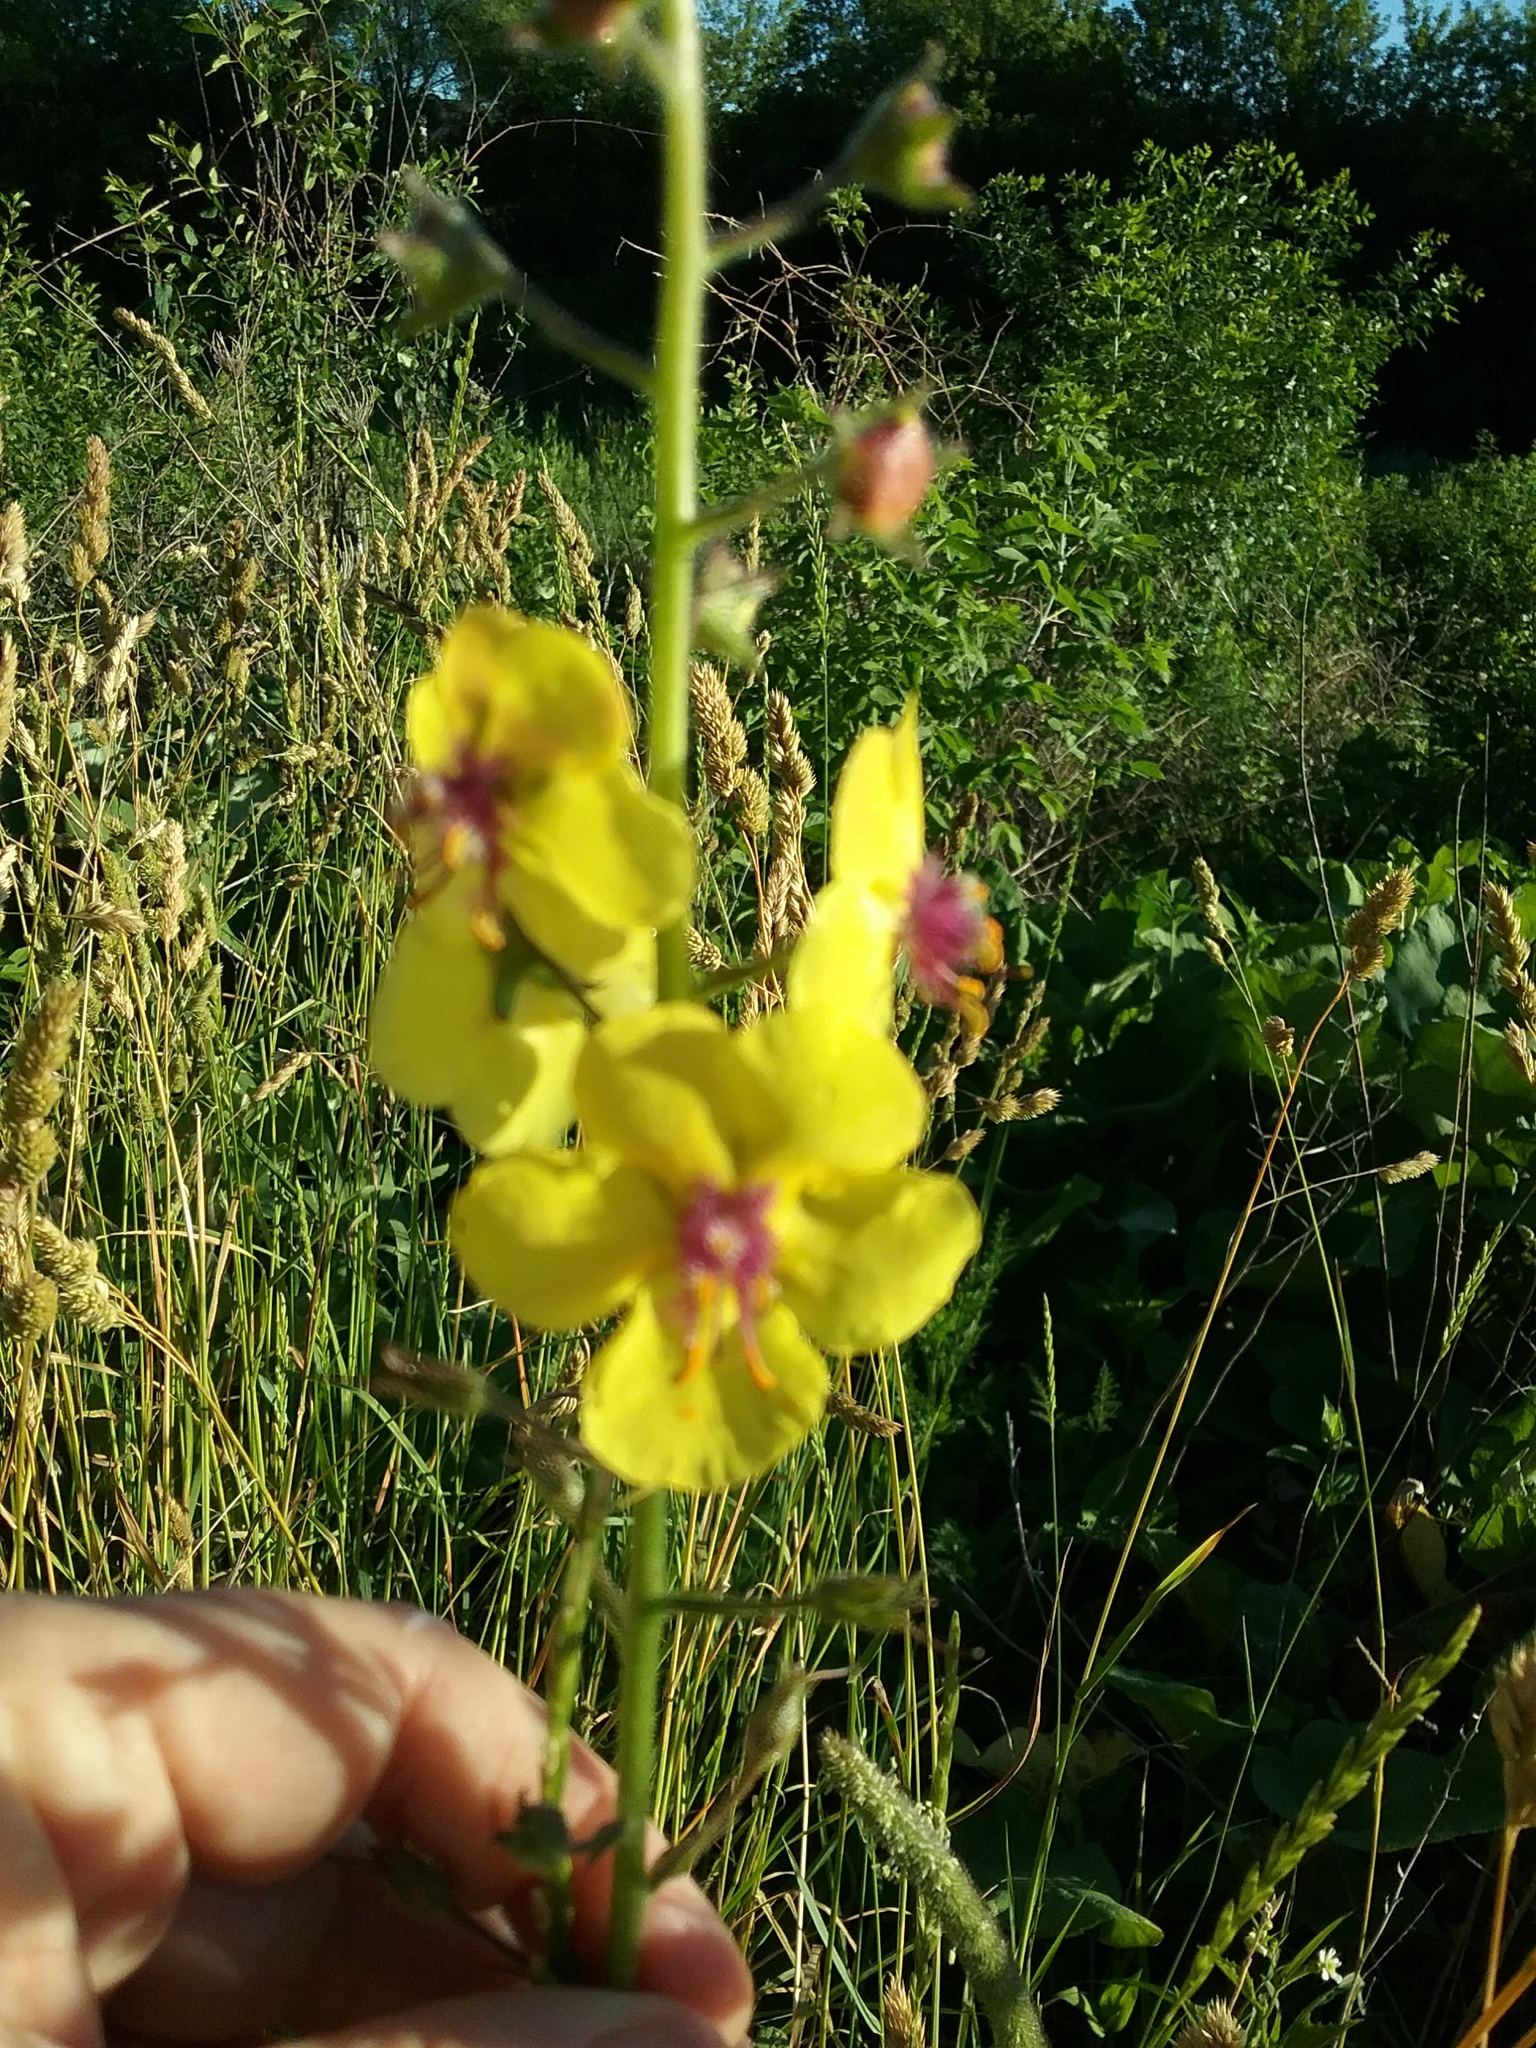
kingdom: Plantae
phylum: Tracheophyta
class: Magnoliopsida
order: Lamiales
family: Scrophulariaceae
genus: Verbascum
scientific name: Verbascum blattaria
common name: Moth mullein
